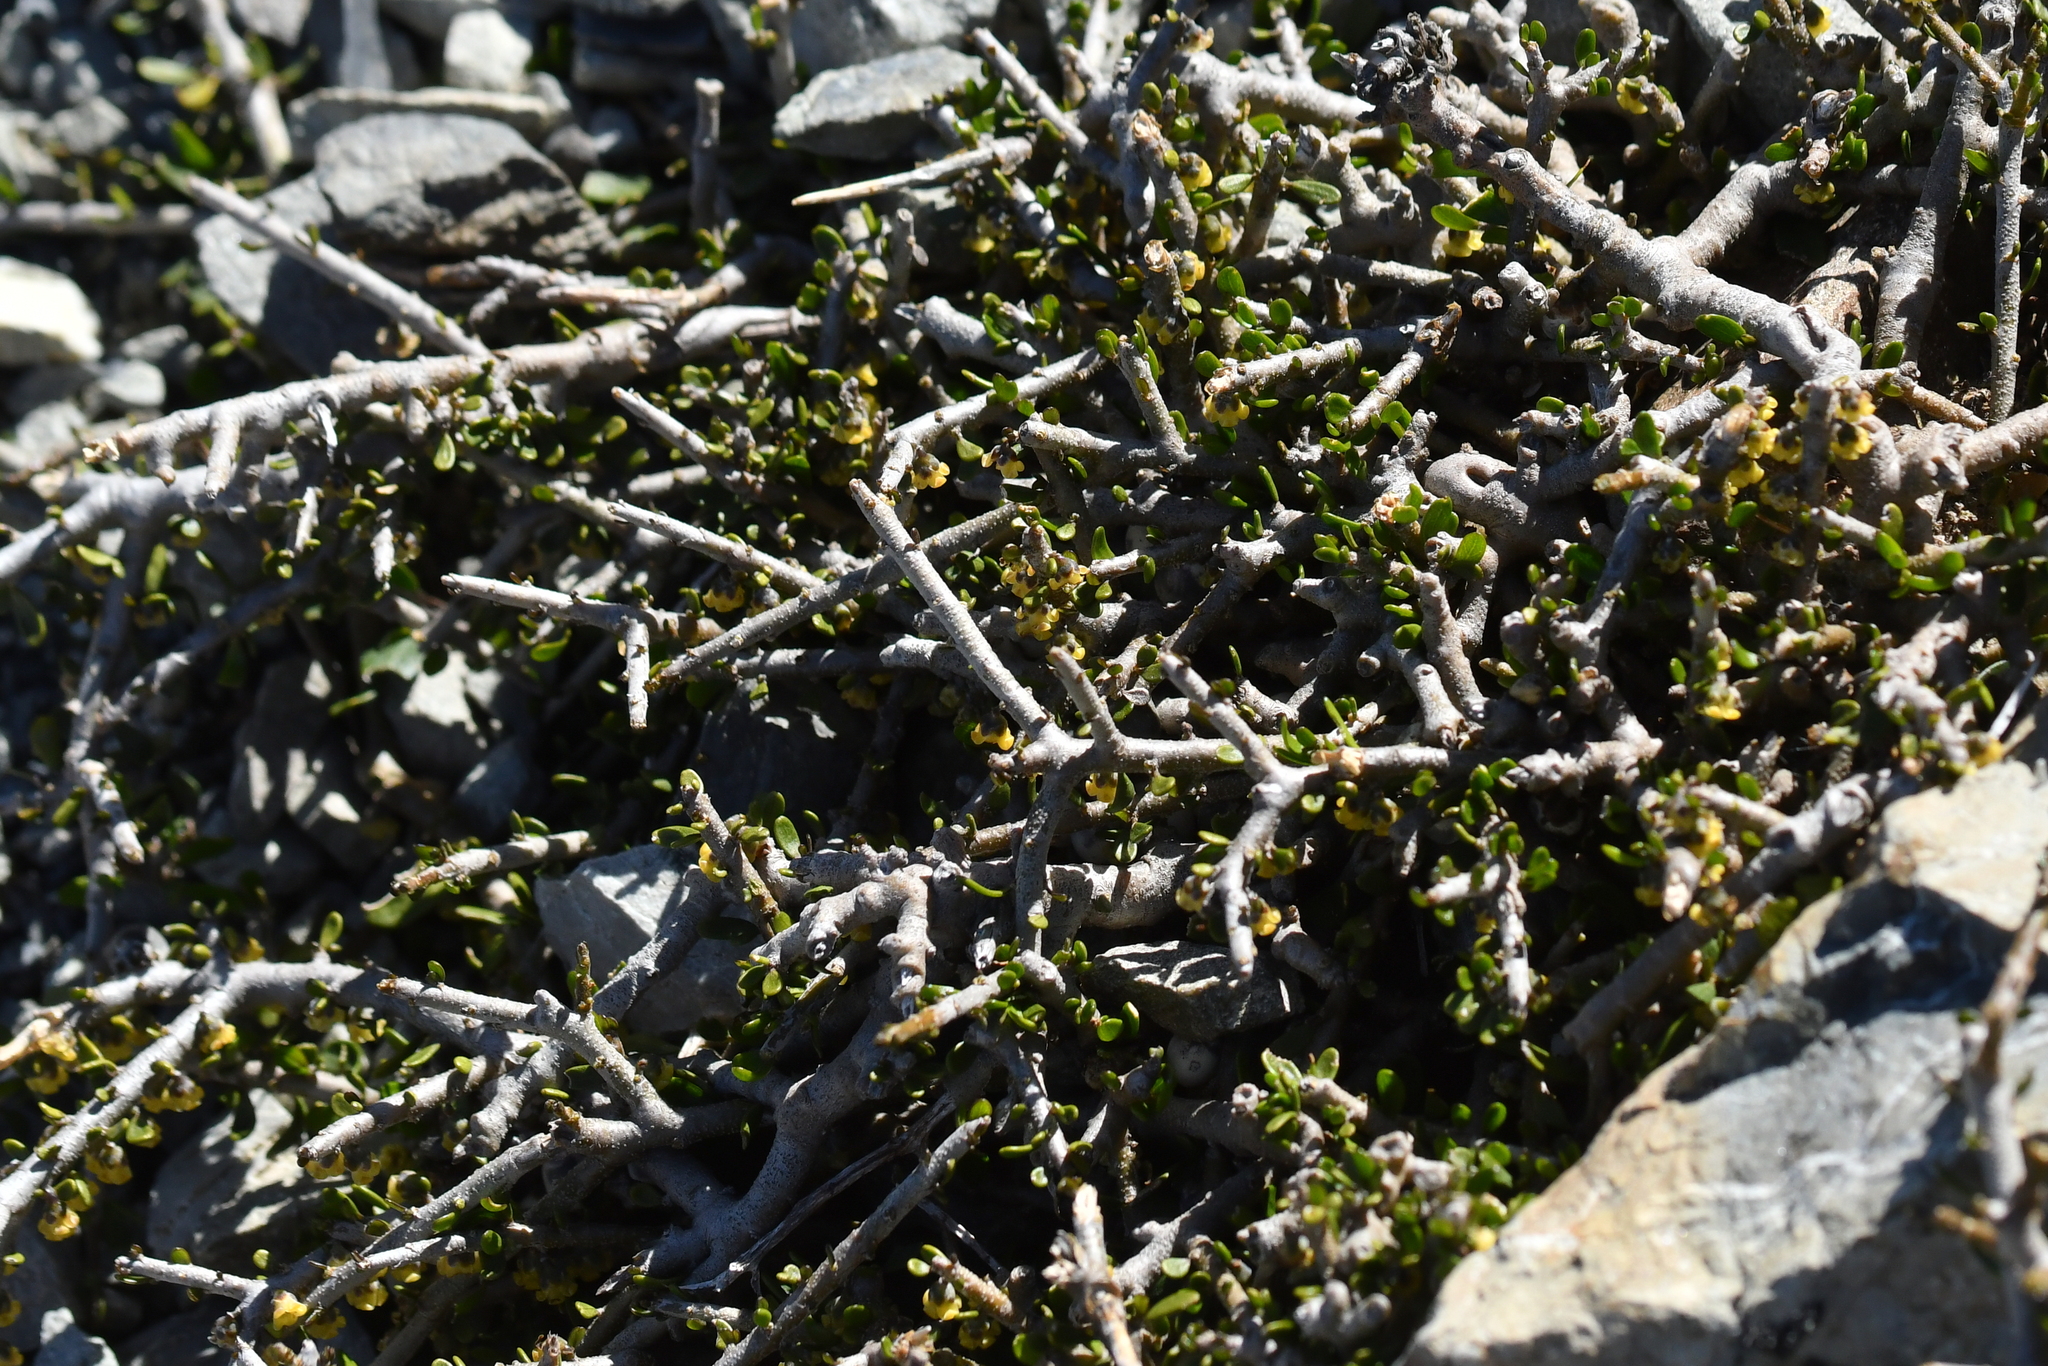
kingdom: Plantae
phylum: Tracheophyta
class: Magnoliopsida
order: Malpighiales
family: Violaceae
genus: Melicytus
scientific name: Melicytus alpinus
